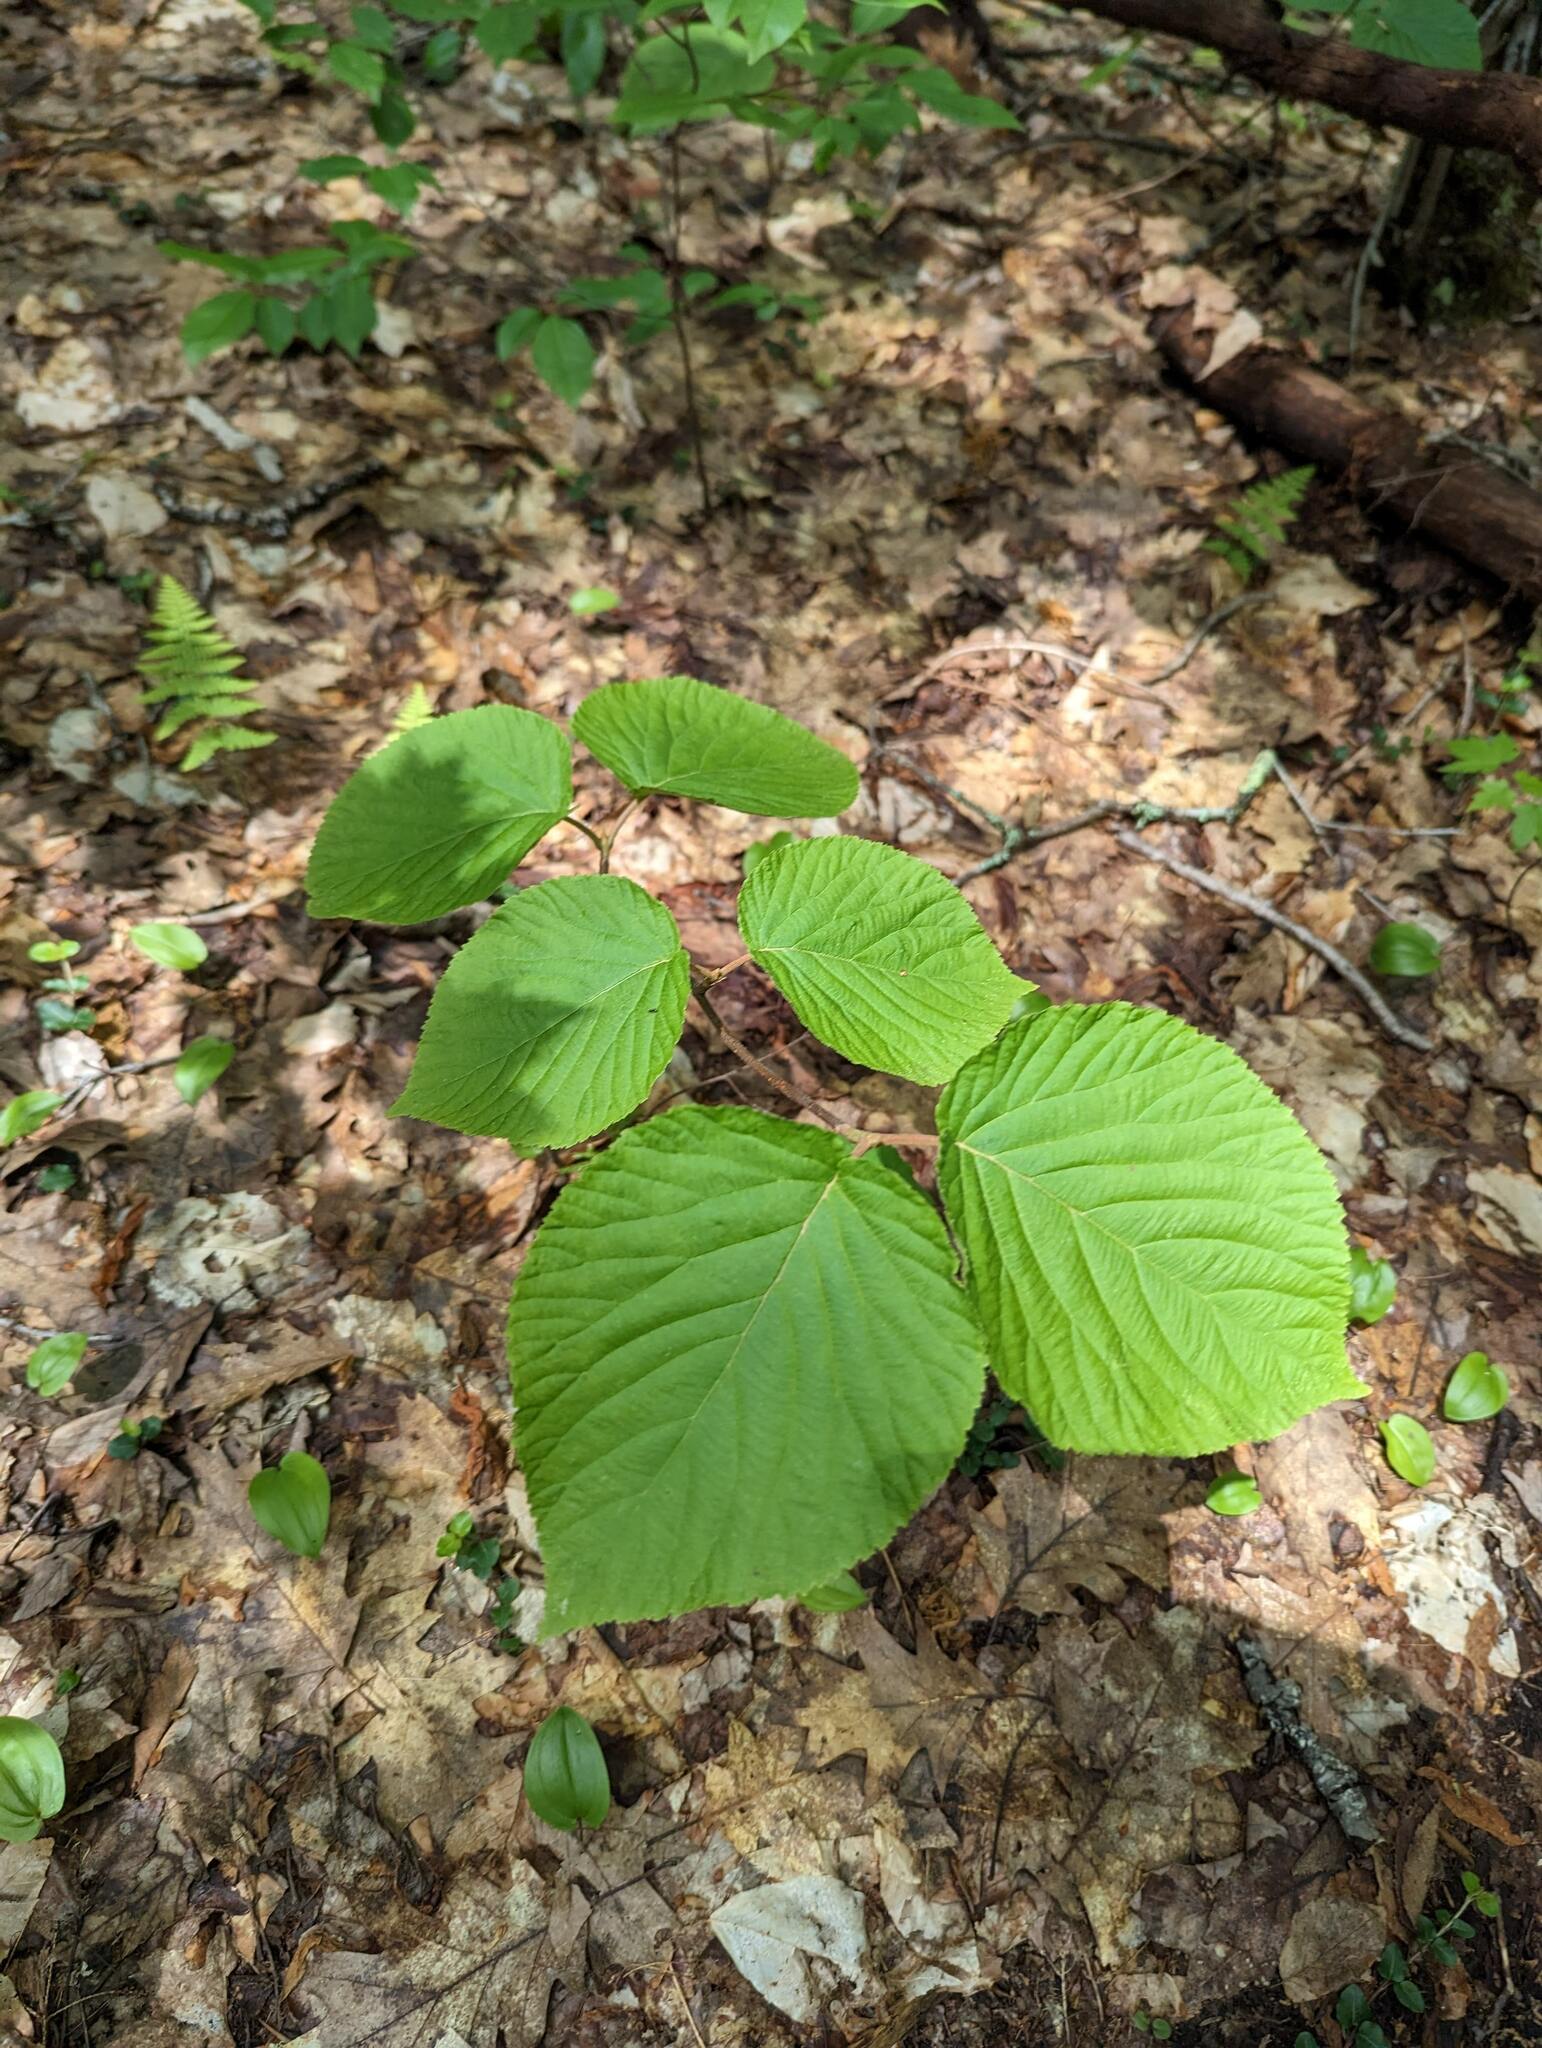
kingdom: Plantae
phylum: Tracheophyta
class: Magnoliopsida
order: Dipsacales
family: Viburnaceae
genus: Viburnum
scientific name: Viburnum lantanoides
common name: Hobblebush
